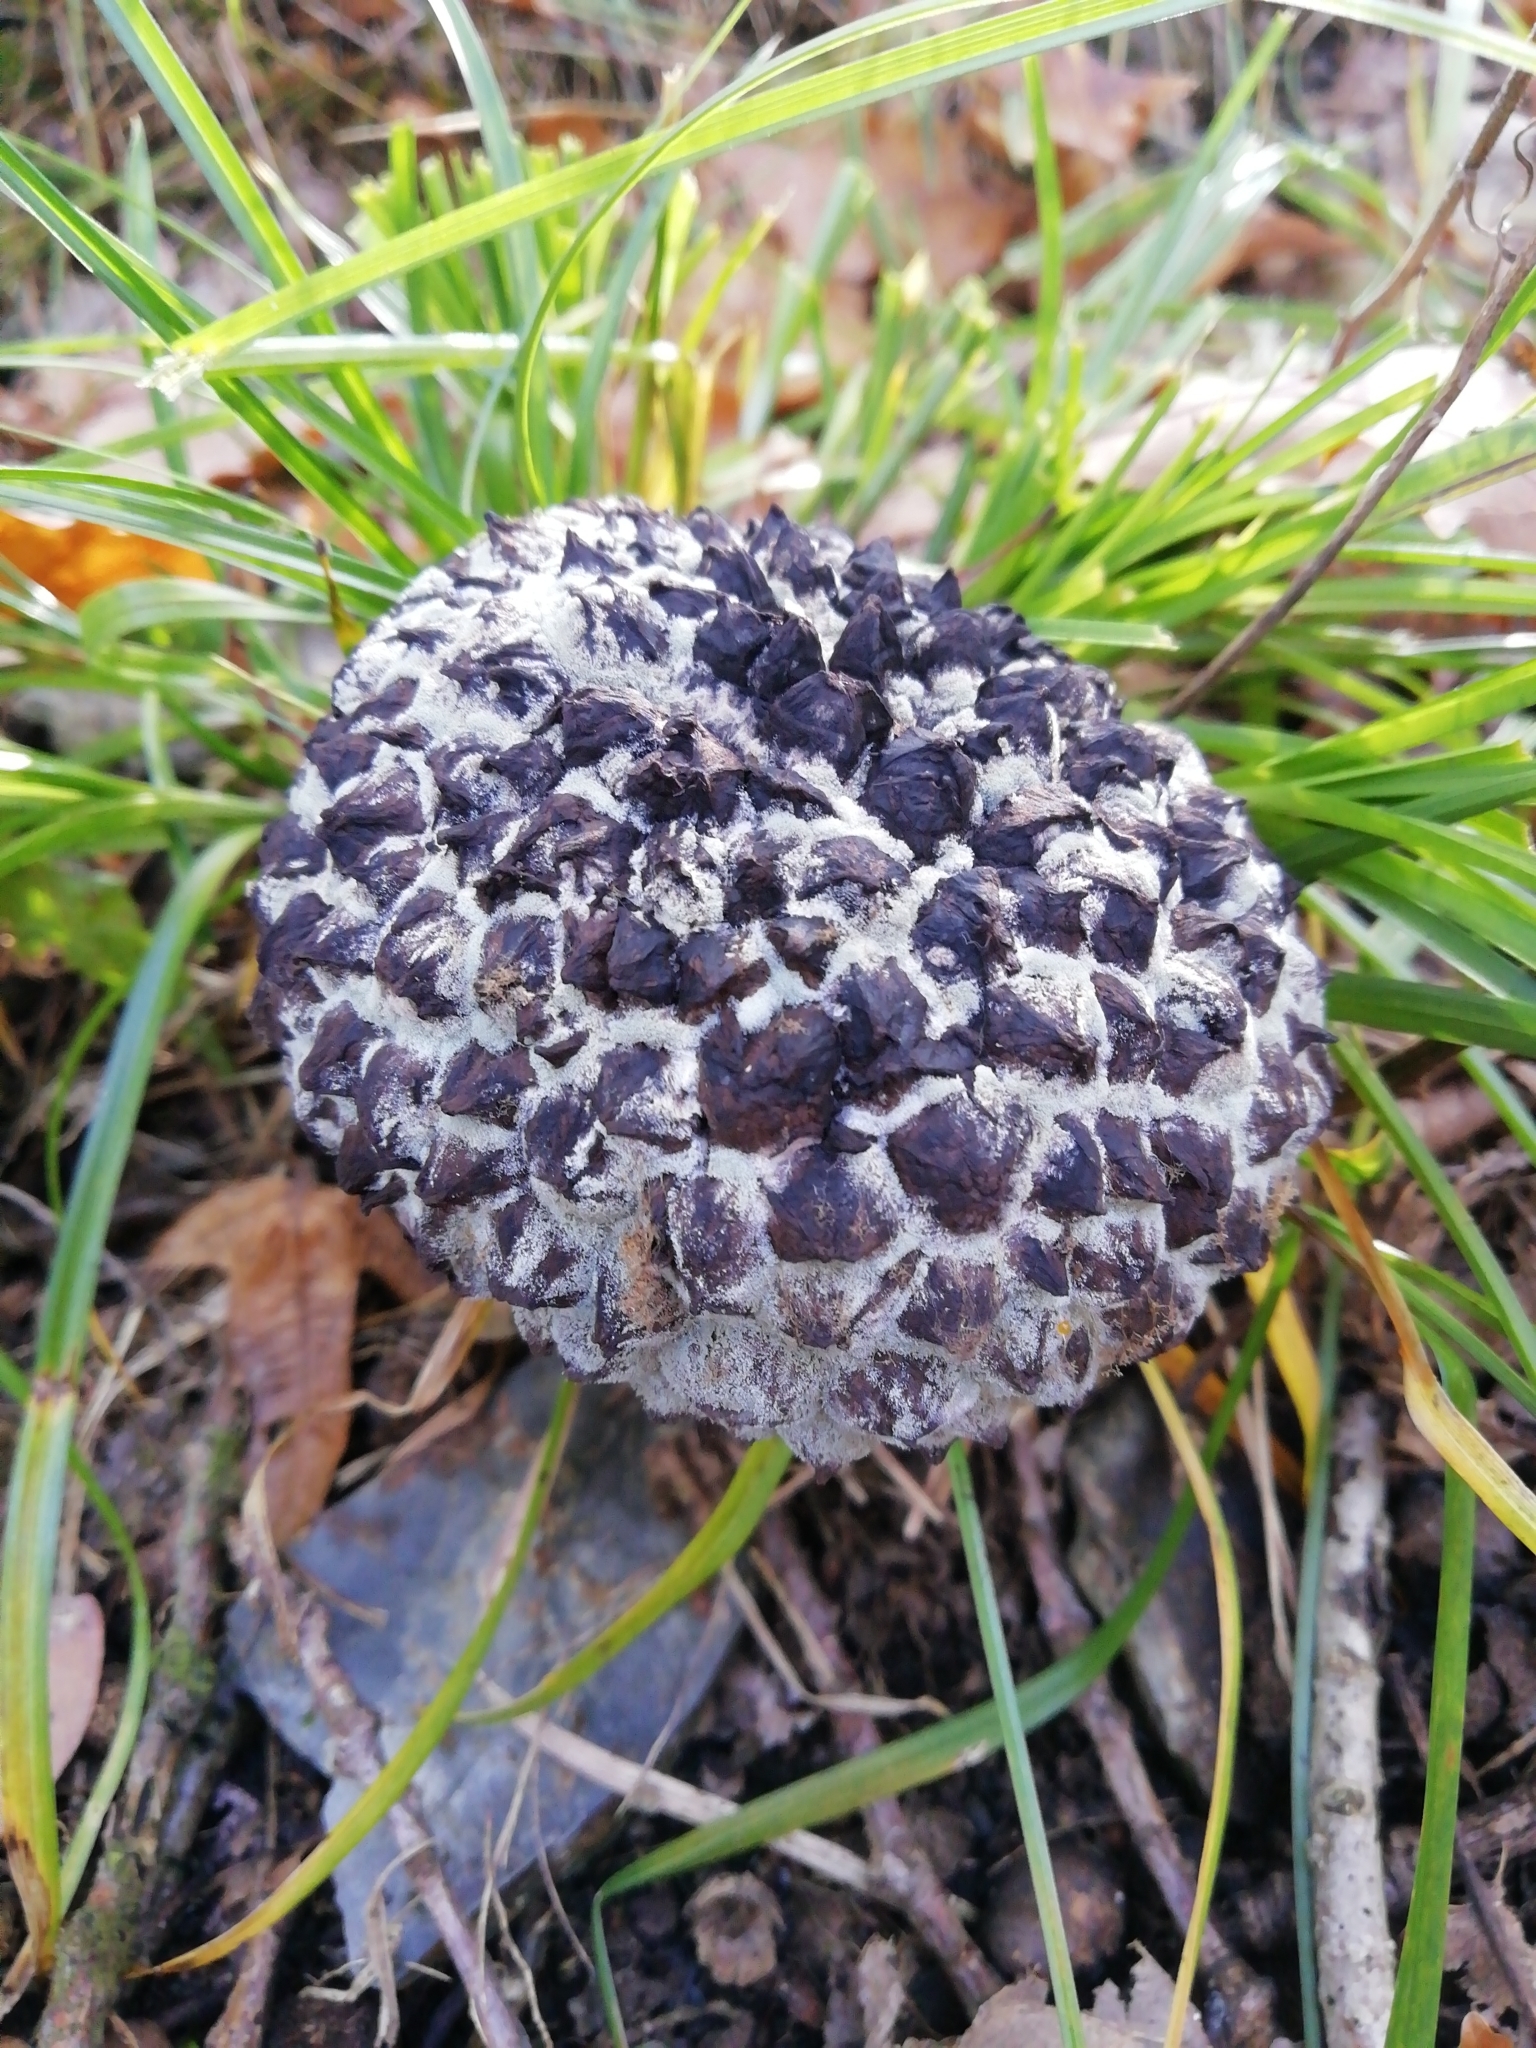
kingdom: Fungi
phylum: Basidiomycota
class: Agaricomycetes
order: Boletales
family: Boletaceae
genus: Strobilomyces
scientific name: Strobilomyces strobilaceus
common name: Old man of the woods
